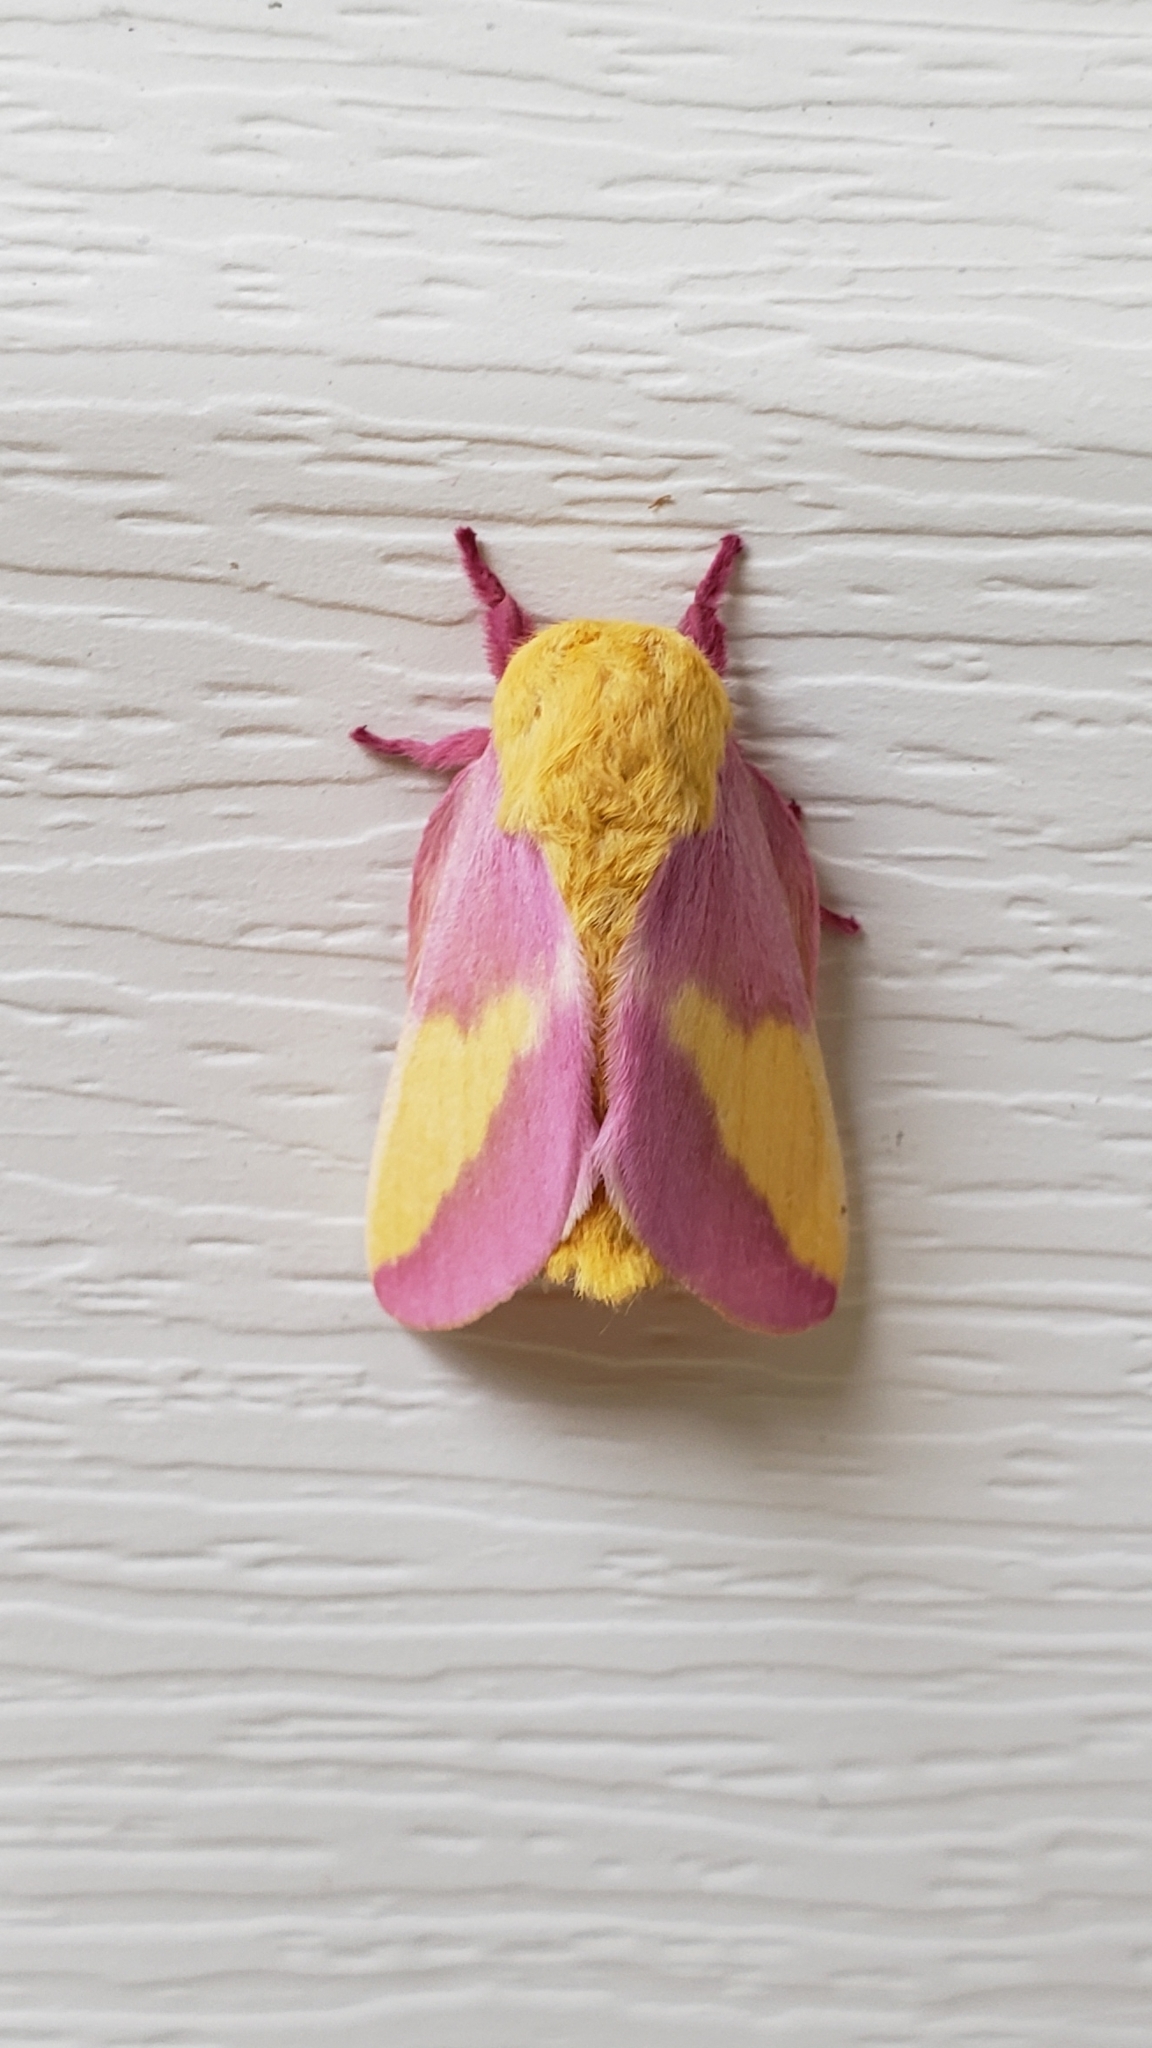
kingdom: Animalia
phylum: Arthropoda
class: Insecta
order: Lepidoptera
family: Saturniidae
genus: Dryocampa
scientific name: Dryocampa rubicunda
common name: Rosy maple moth
